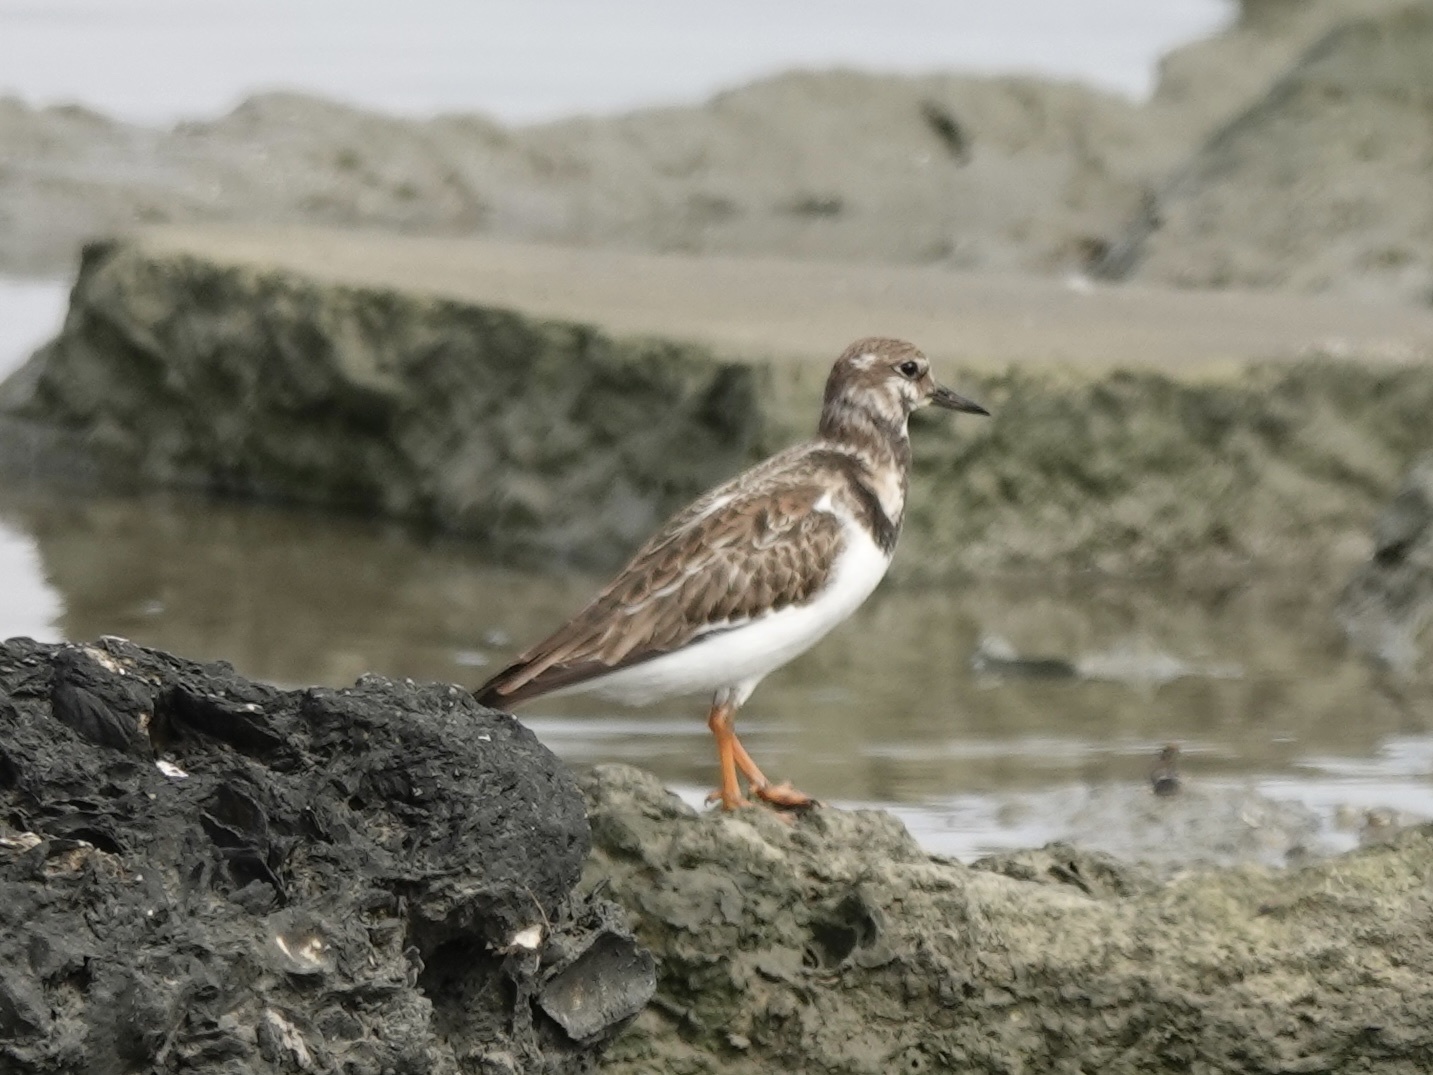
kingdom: Animalia
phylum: Chordata
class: Aves
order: Charadriiformes
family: Scolopacidae
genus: Arenaria
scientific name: Arenaria interpres
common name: Ruddy turnstone
